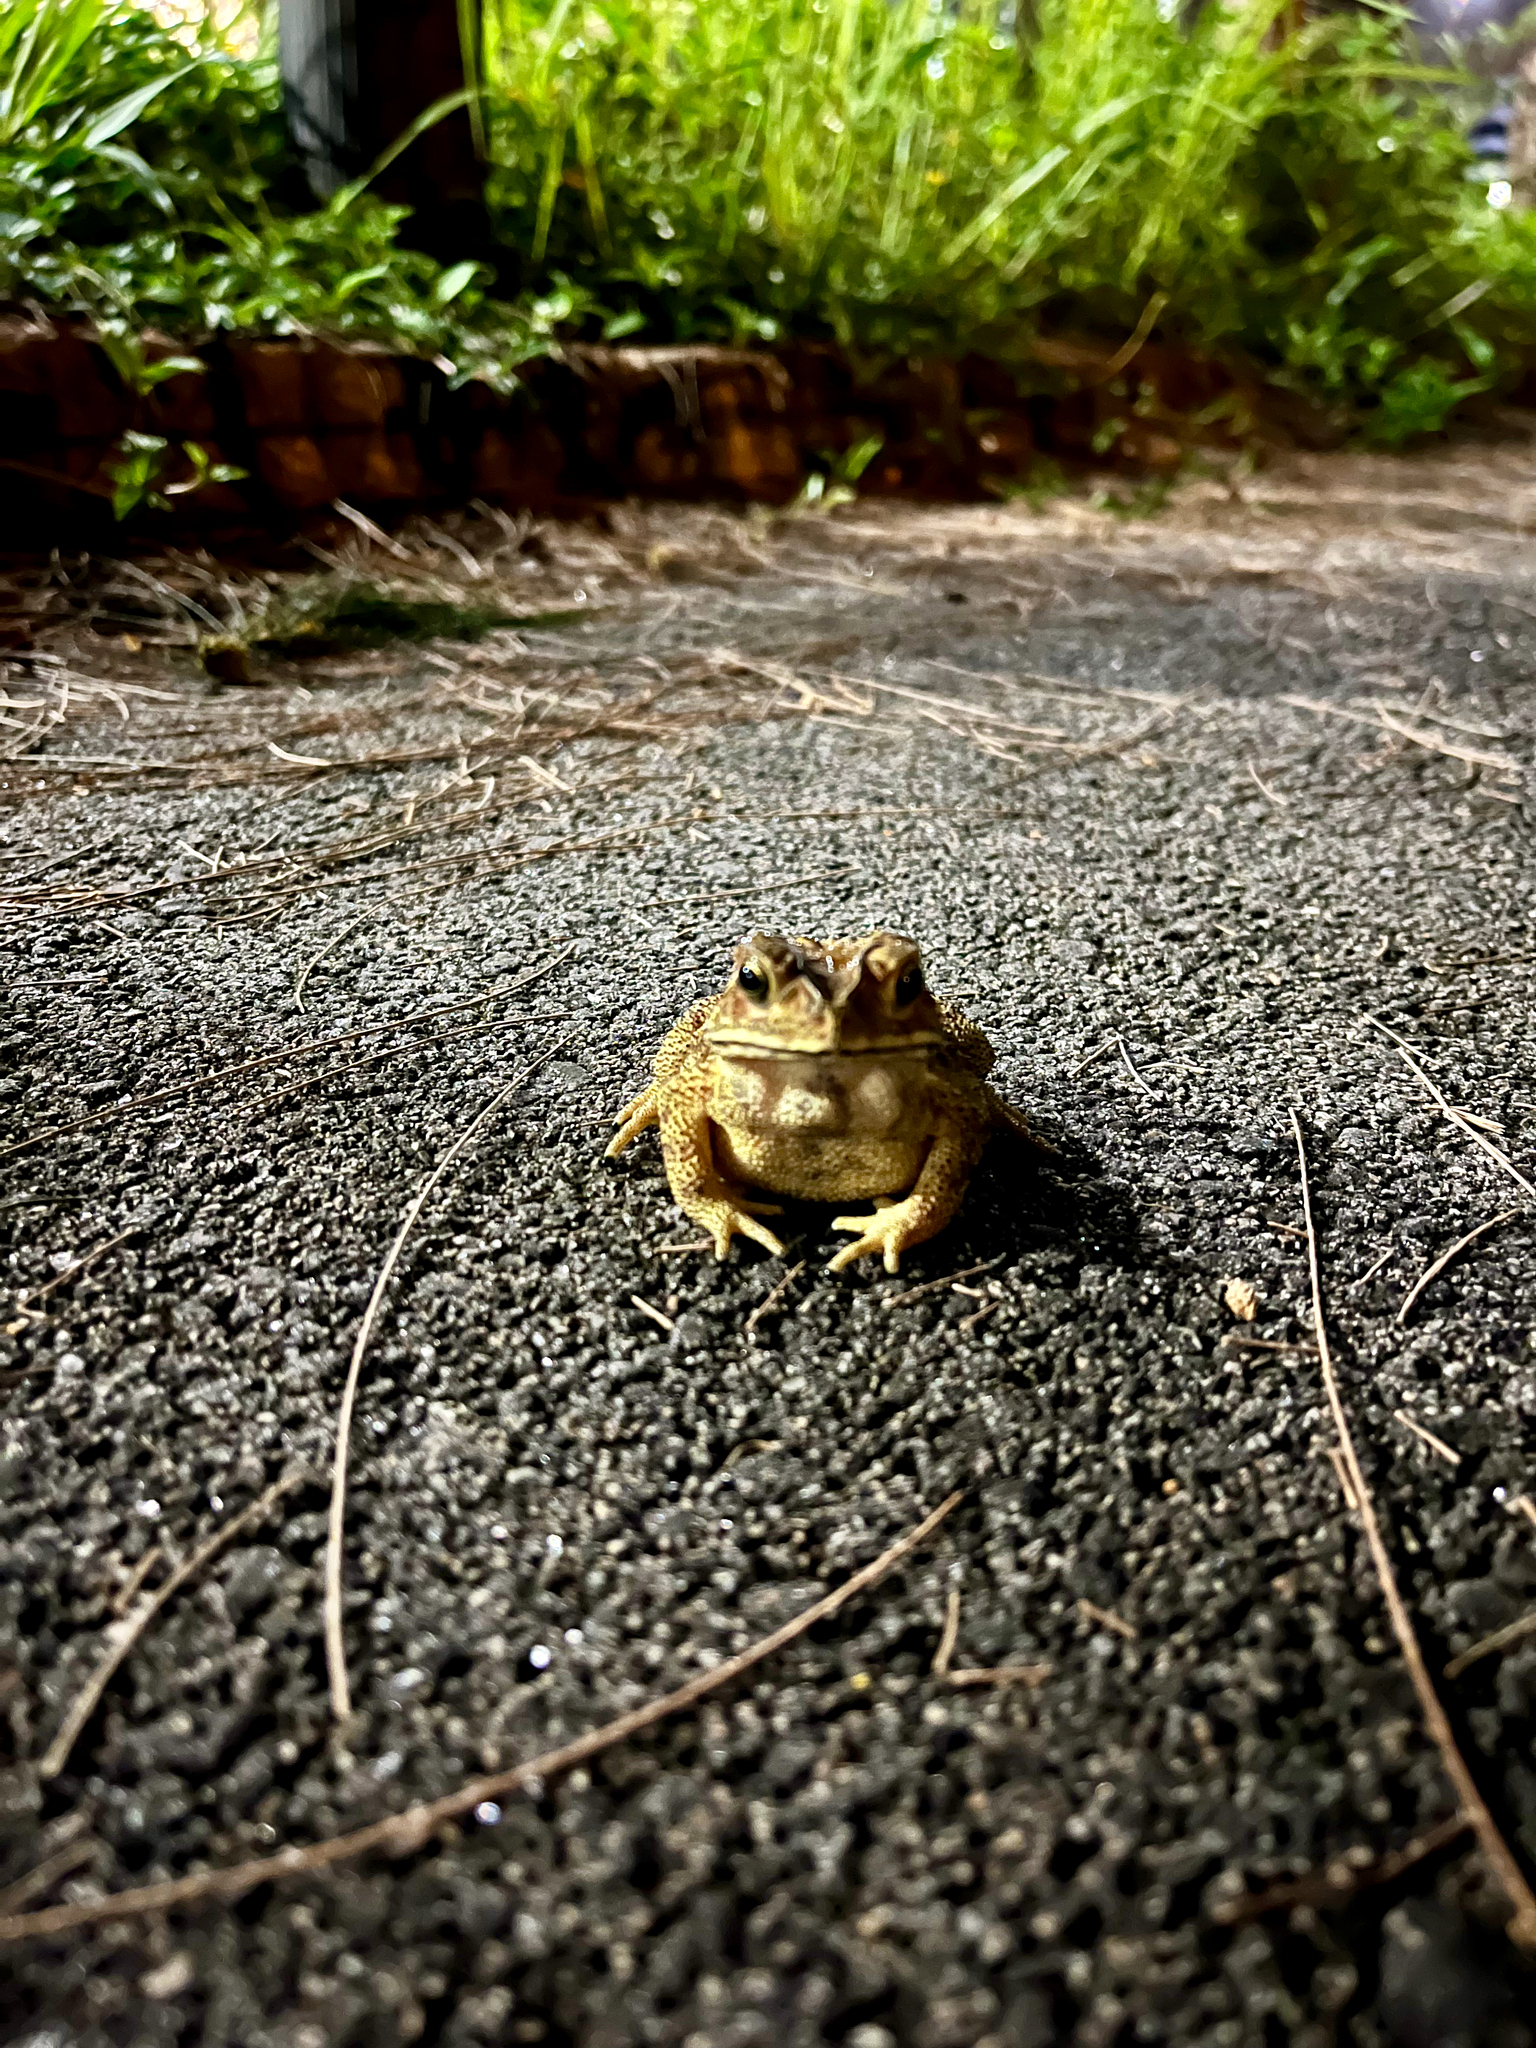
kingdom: Animalia
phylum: Chordata
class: Amphibia
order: Anura
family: Bufonidae
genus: Duttaphrynus
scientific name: Duttaphrynus melanostictus
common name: Common sunda toad
